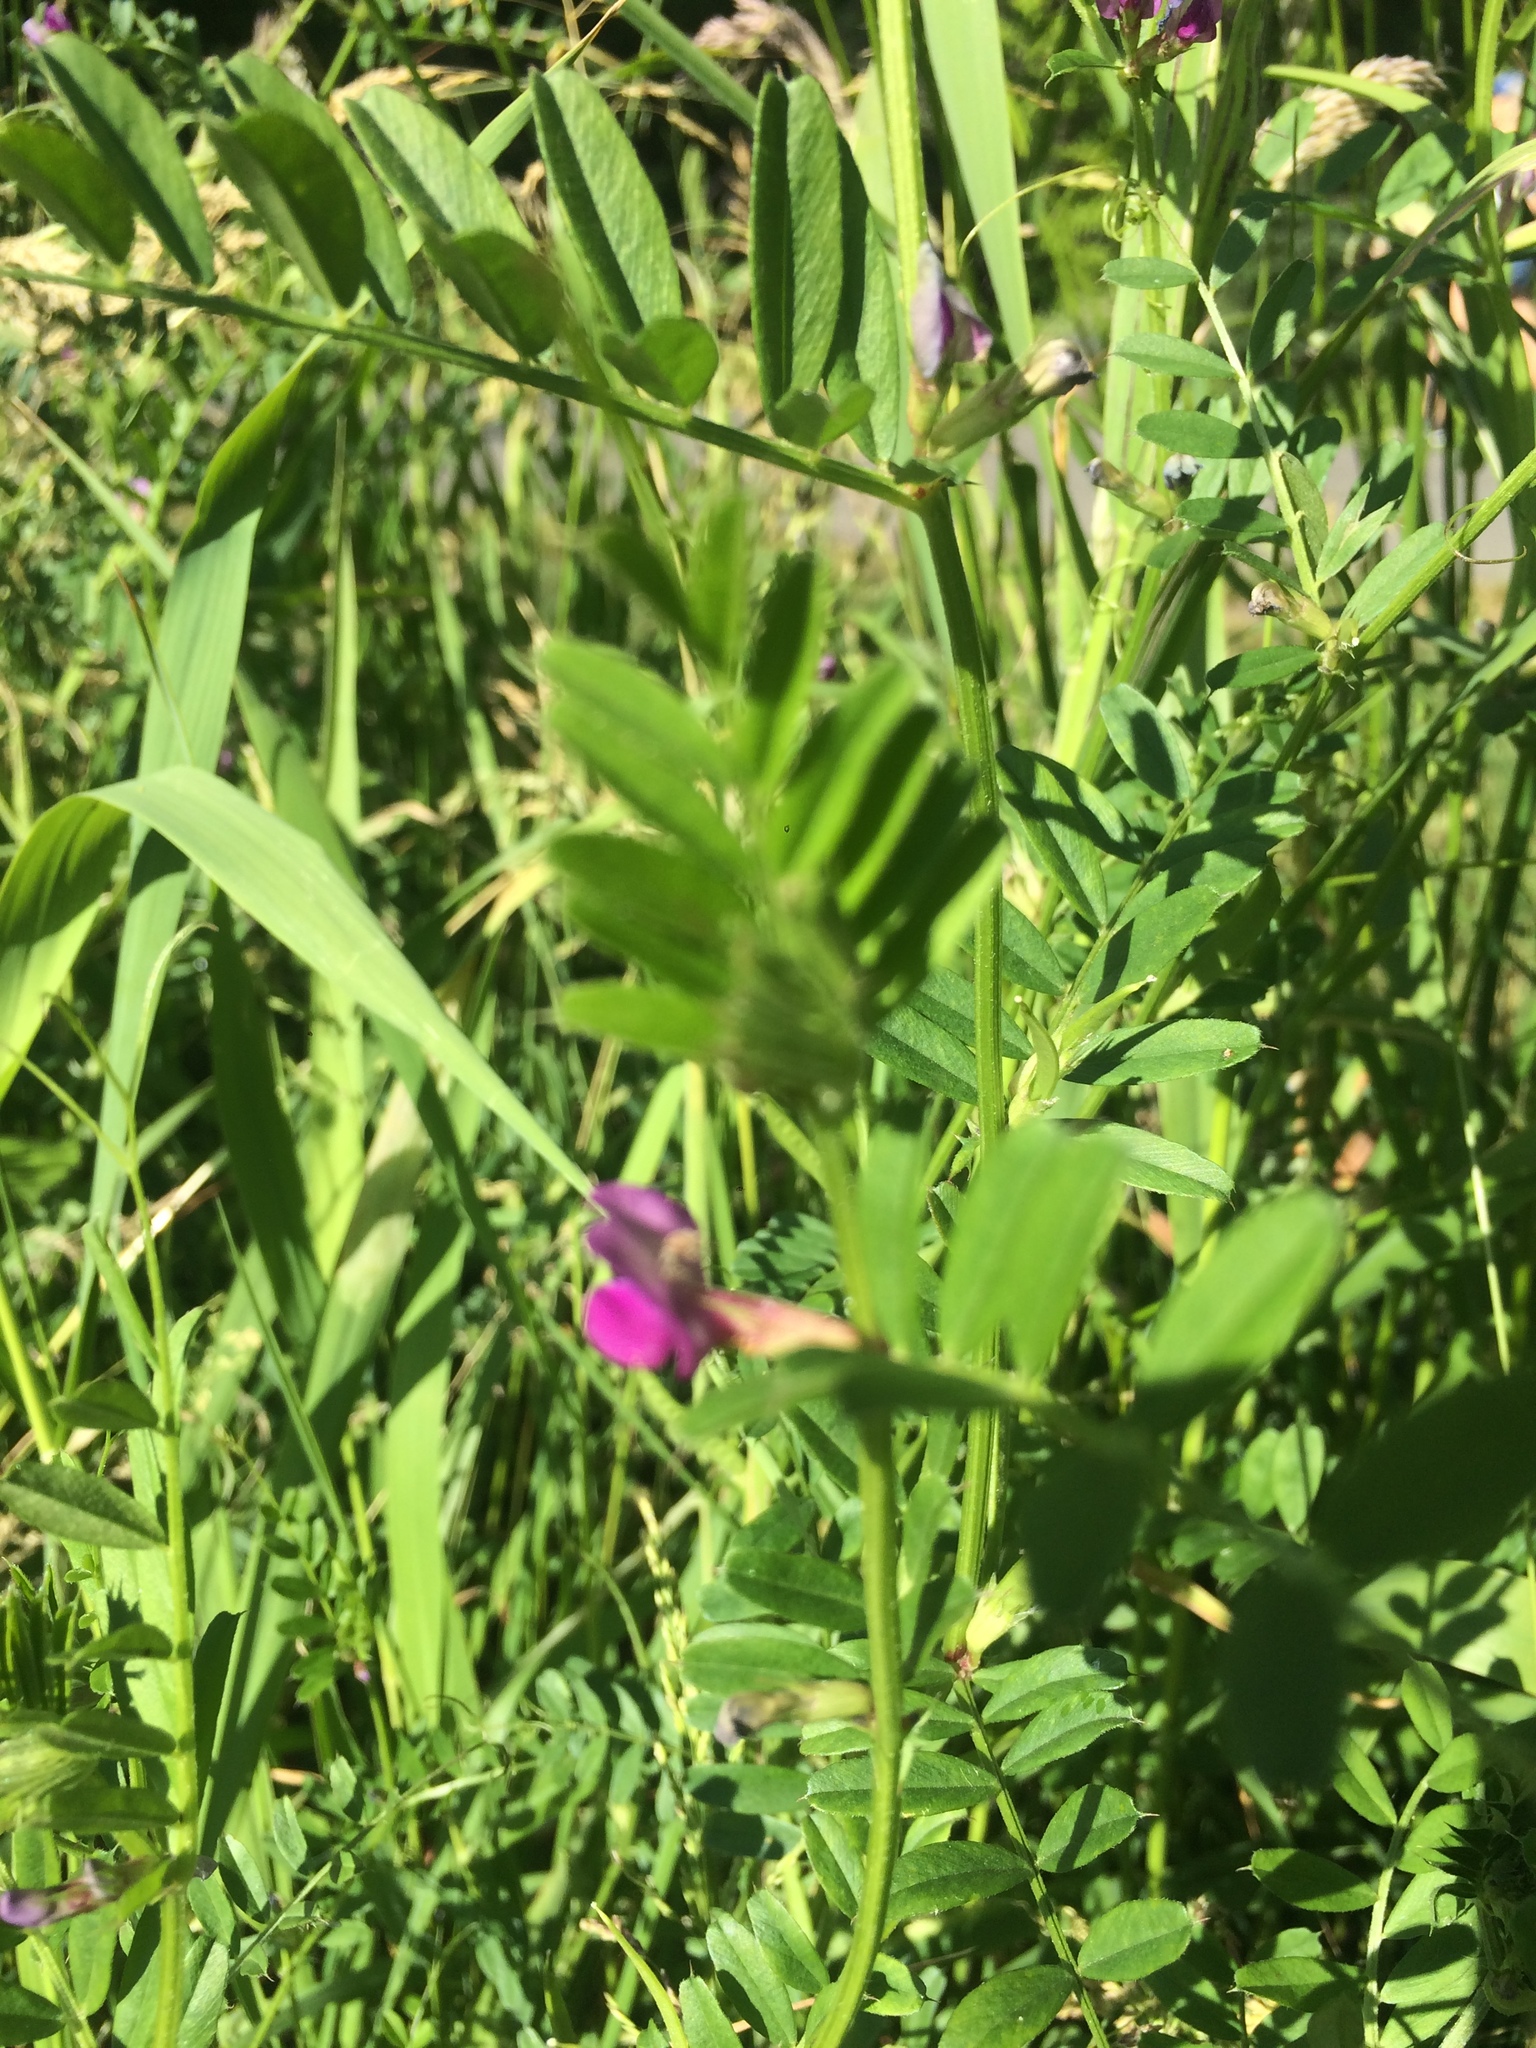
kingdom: Plantae
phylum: Tracheophyta
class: Magnoliopsida
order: Fabales
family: Fabaceae
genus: Vicia
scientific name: Vicia sativa
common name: Garden vetch
